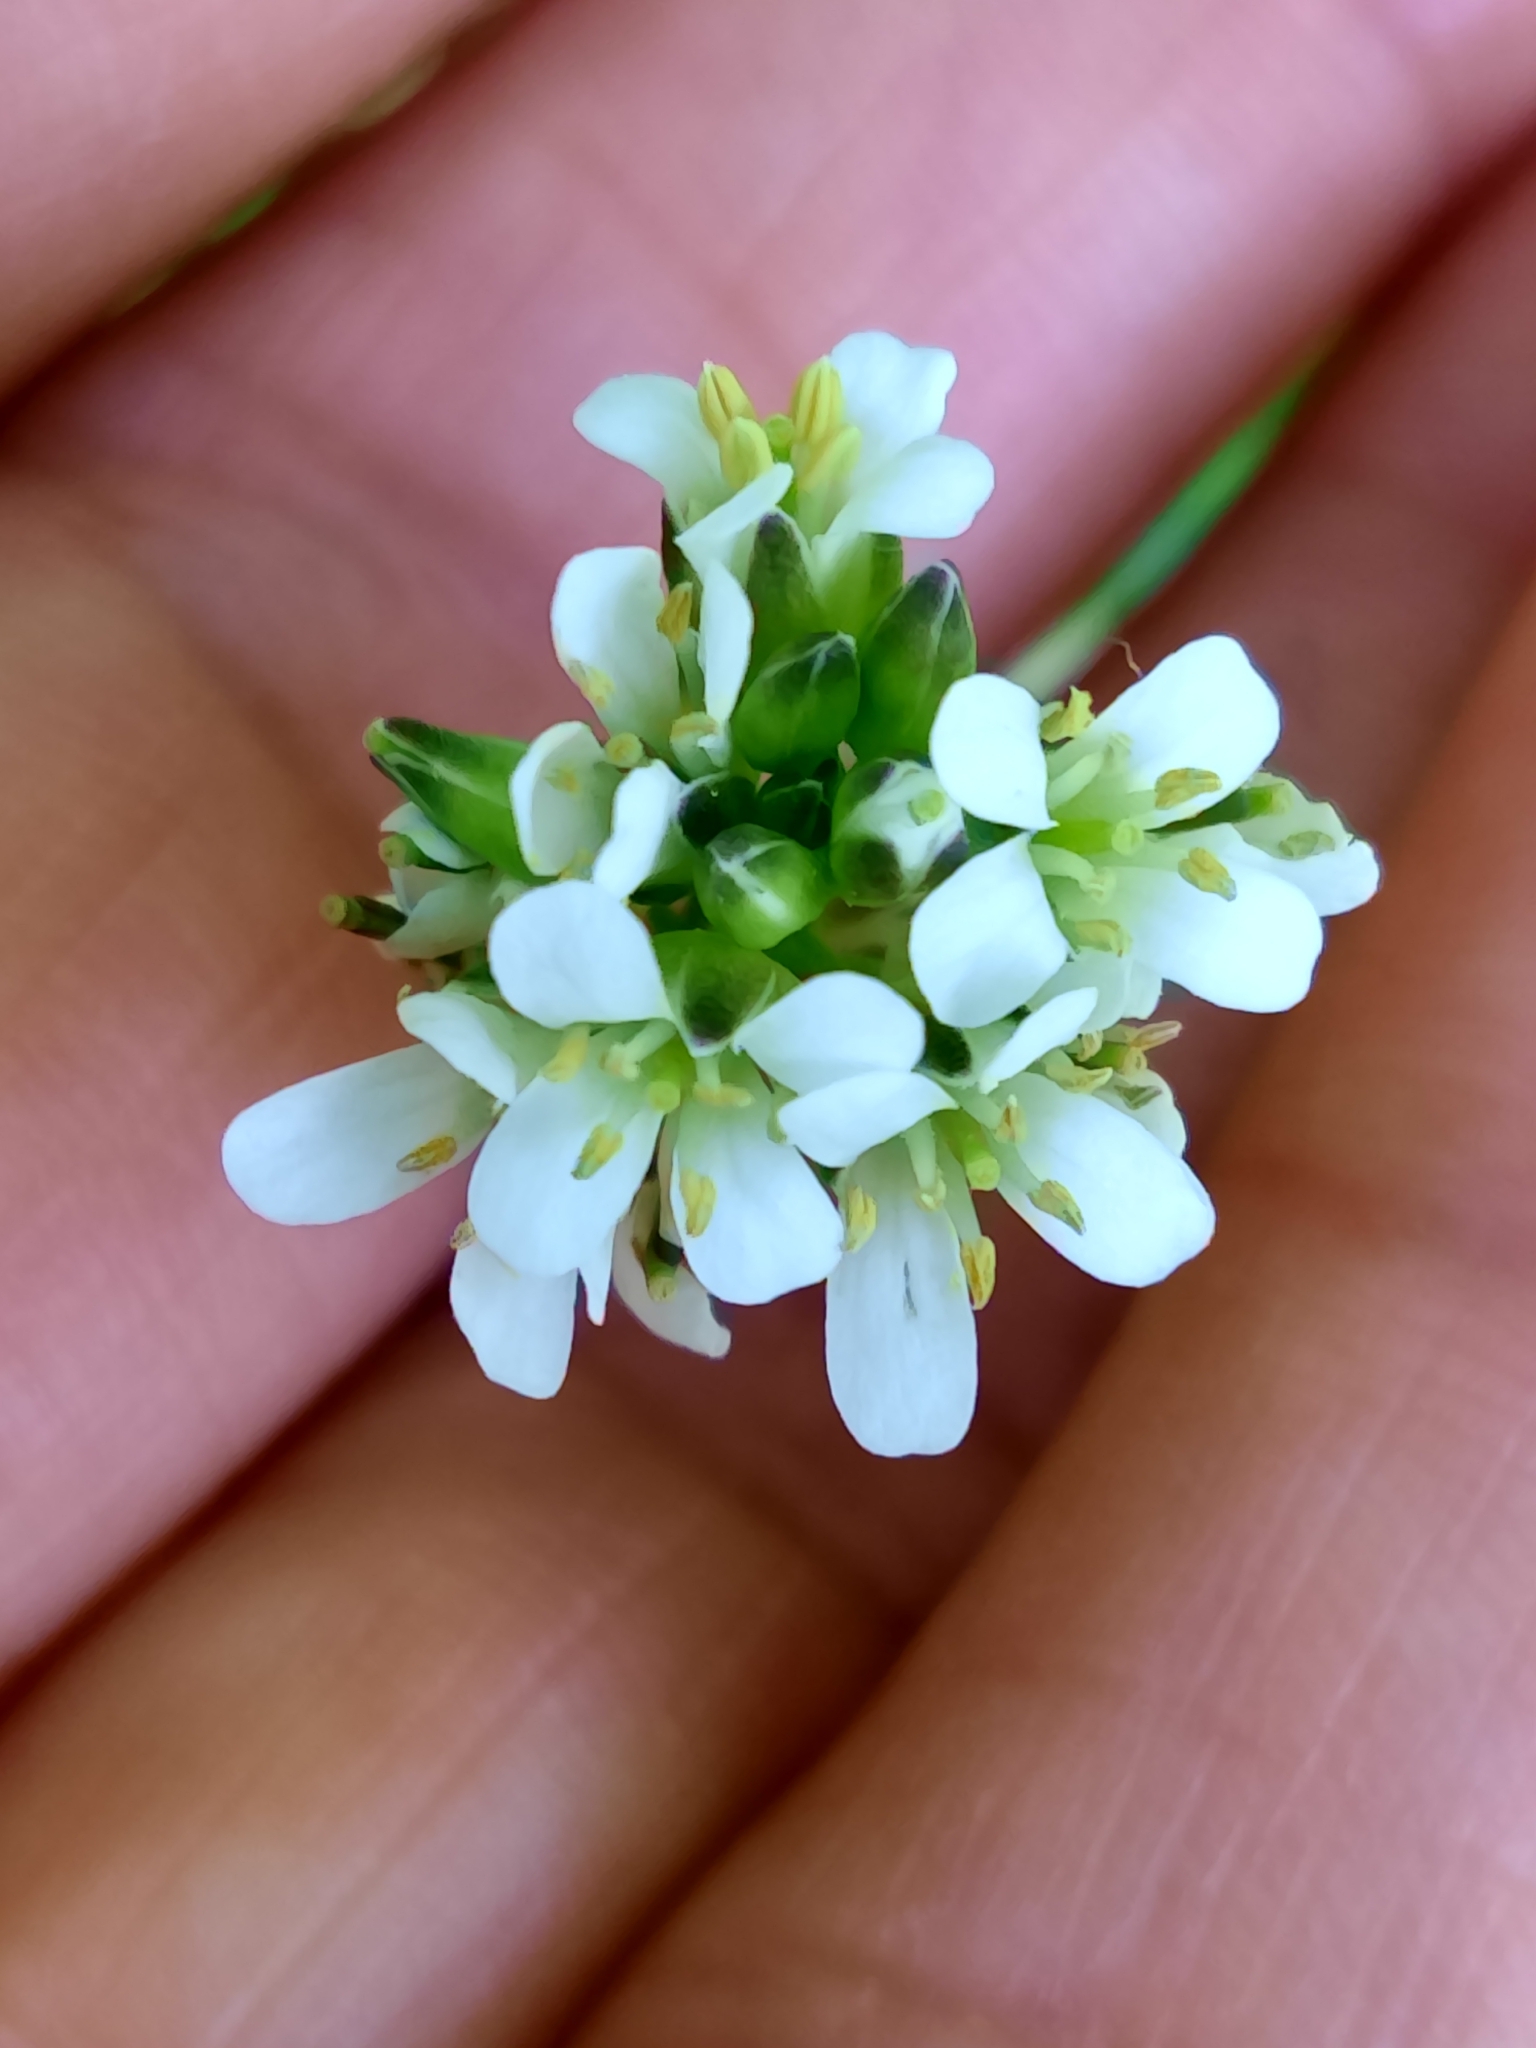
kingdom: Plantae
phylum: Tracheophyta
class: Magnoliopsida
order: Brassicales
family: Brassicaceae
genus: Arabis
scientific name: Arabis juressi
